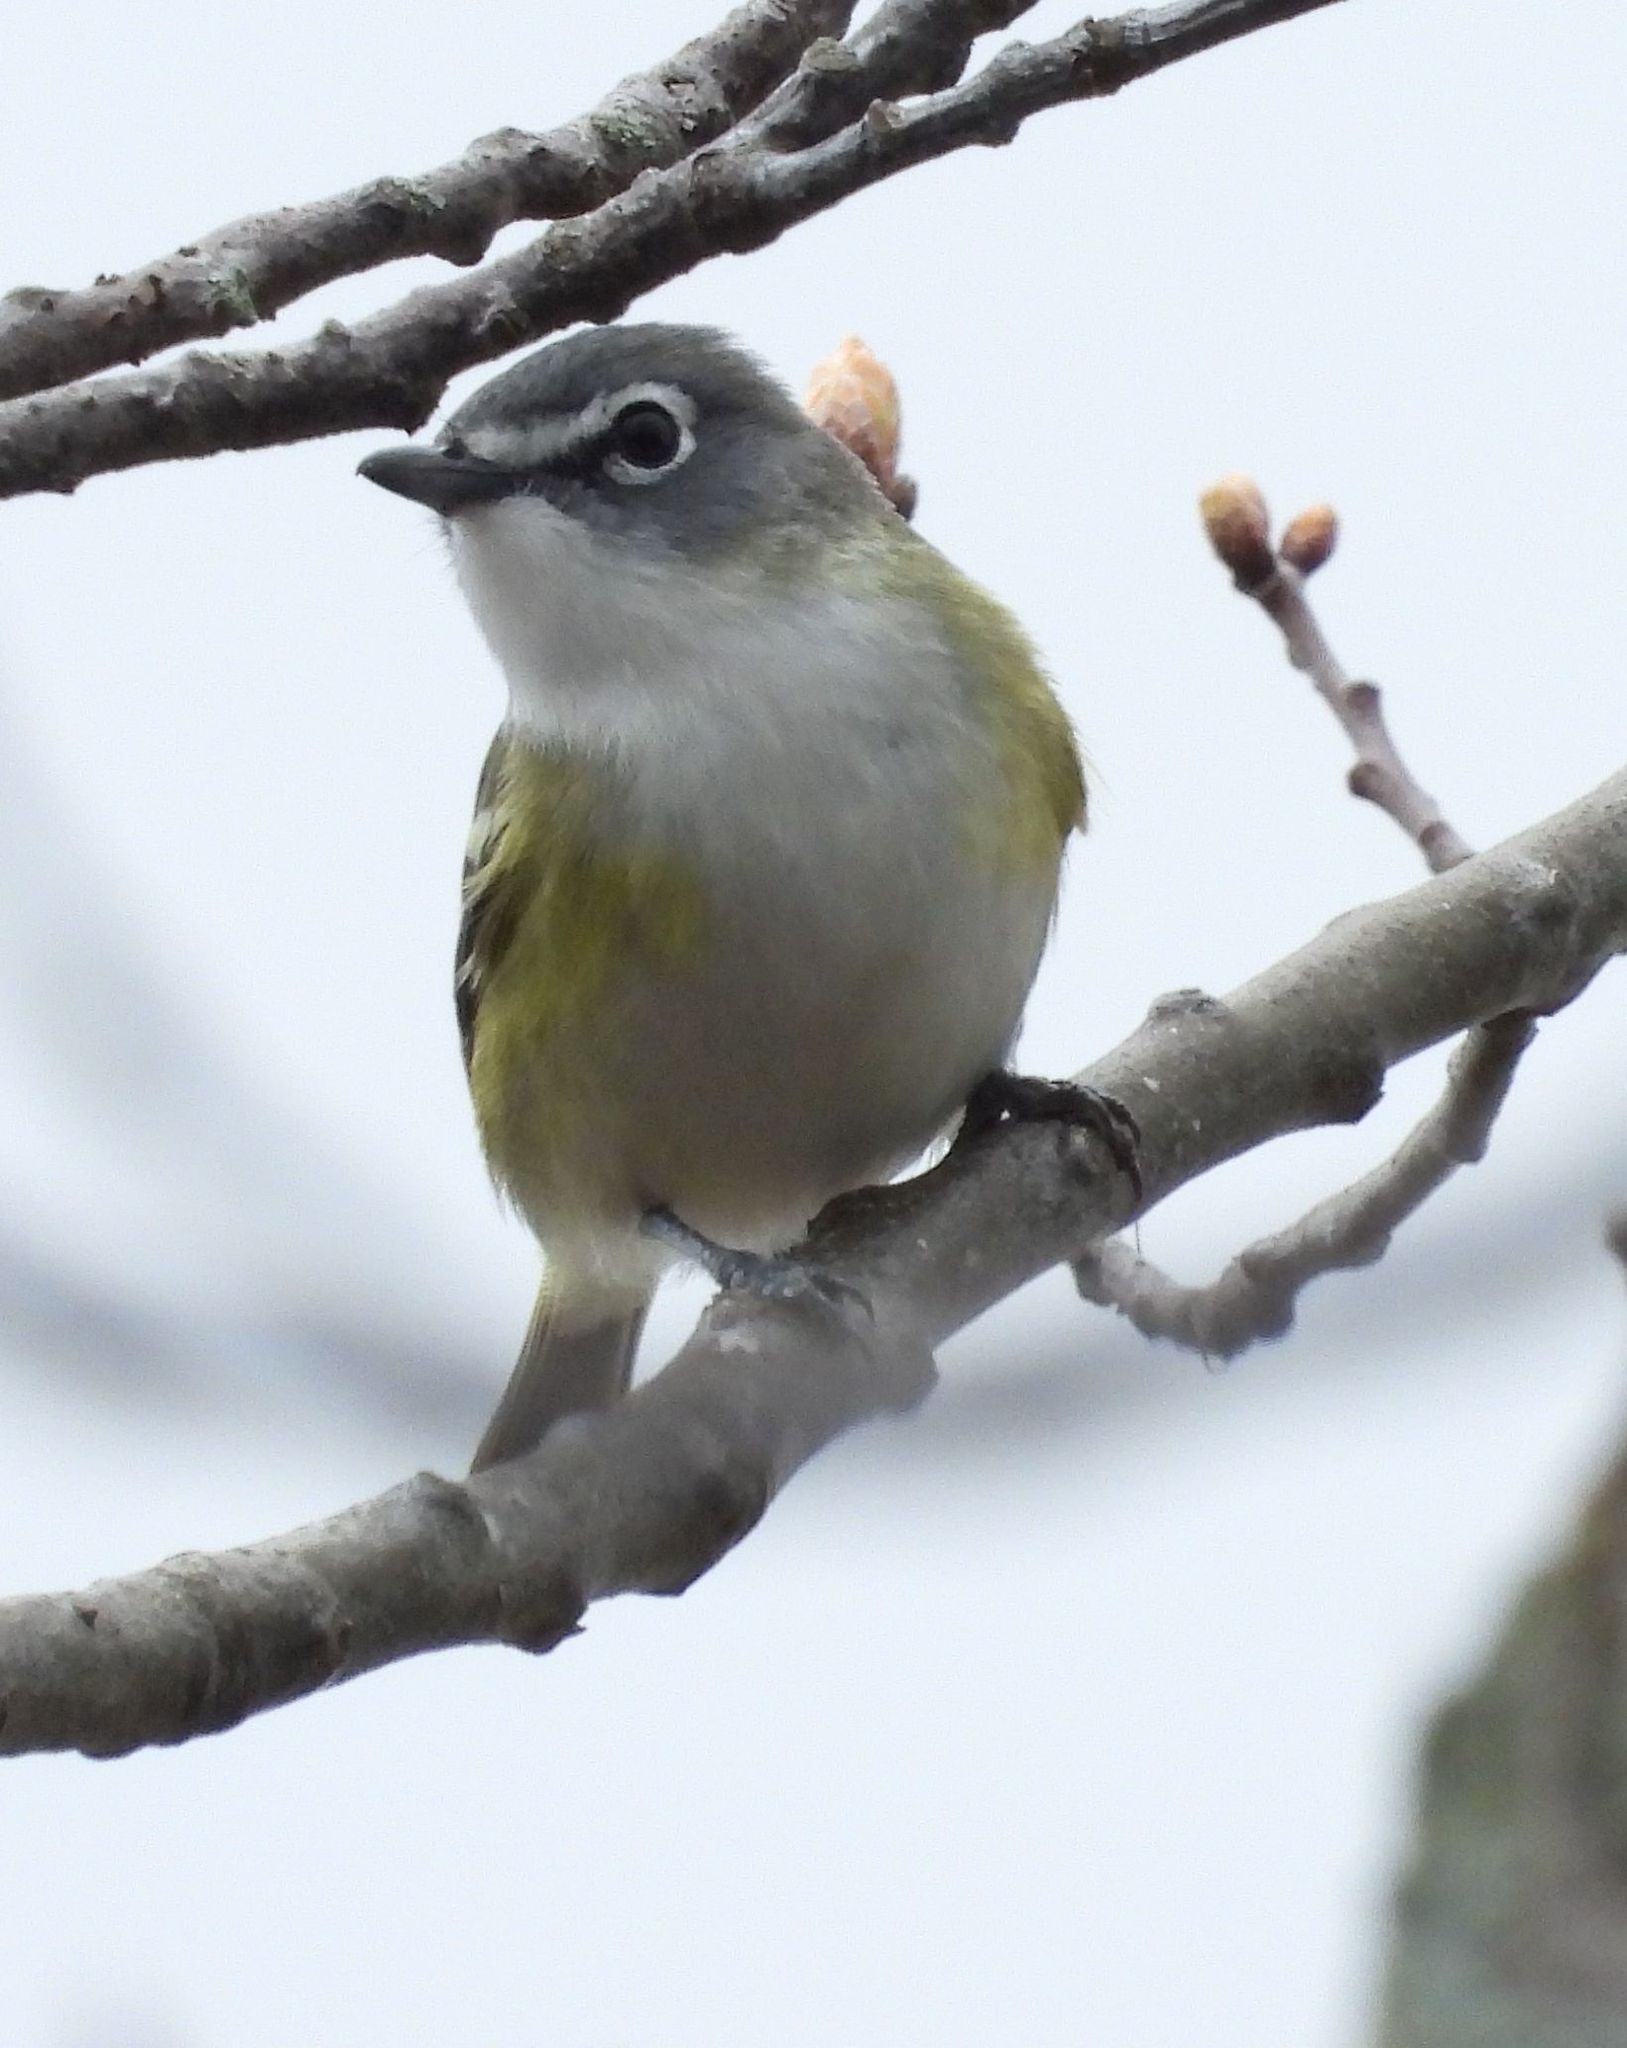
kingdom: Animalia
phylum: Chordata
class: Aves
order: Passeriformes
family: Vireonidae
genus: Vireo
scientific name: Vireo solitarius
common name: Blue-headed vireo
